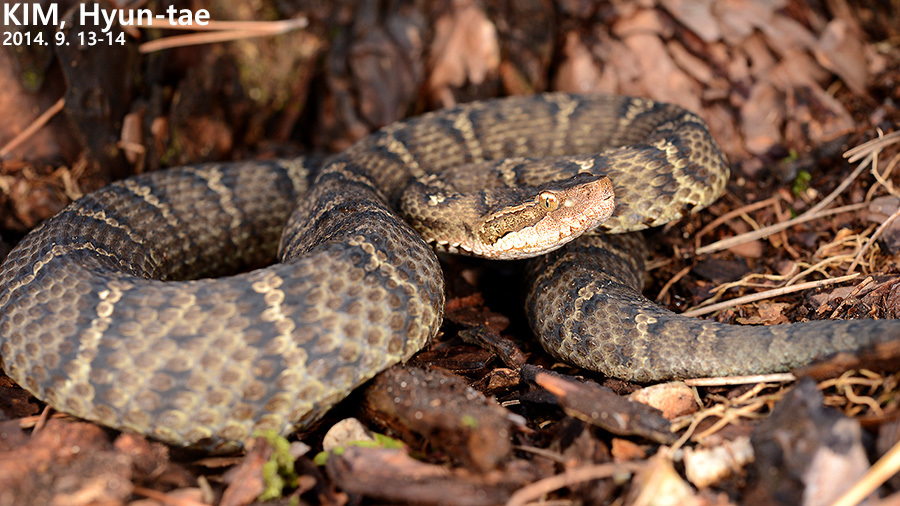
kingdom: Animalia
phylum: Chordata
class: Squamata
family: Viperidae
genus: Gloydius
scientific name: Gloydius ussuriensis
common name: Ussuri mamushi
